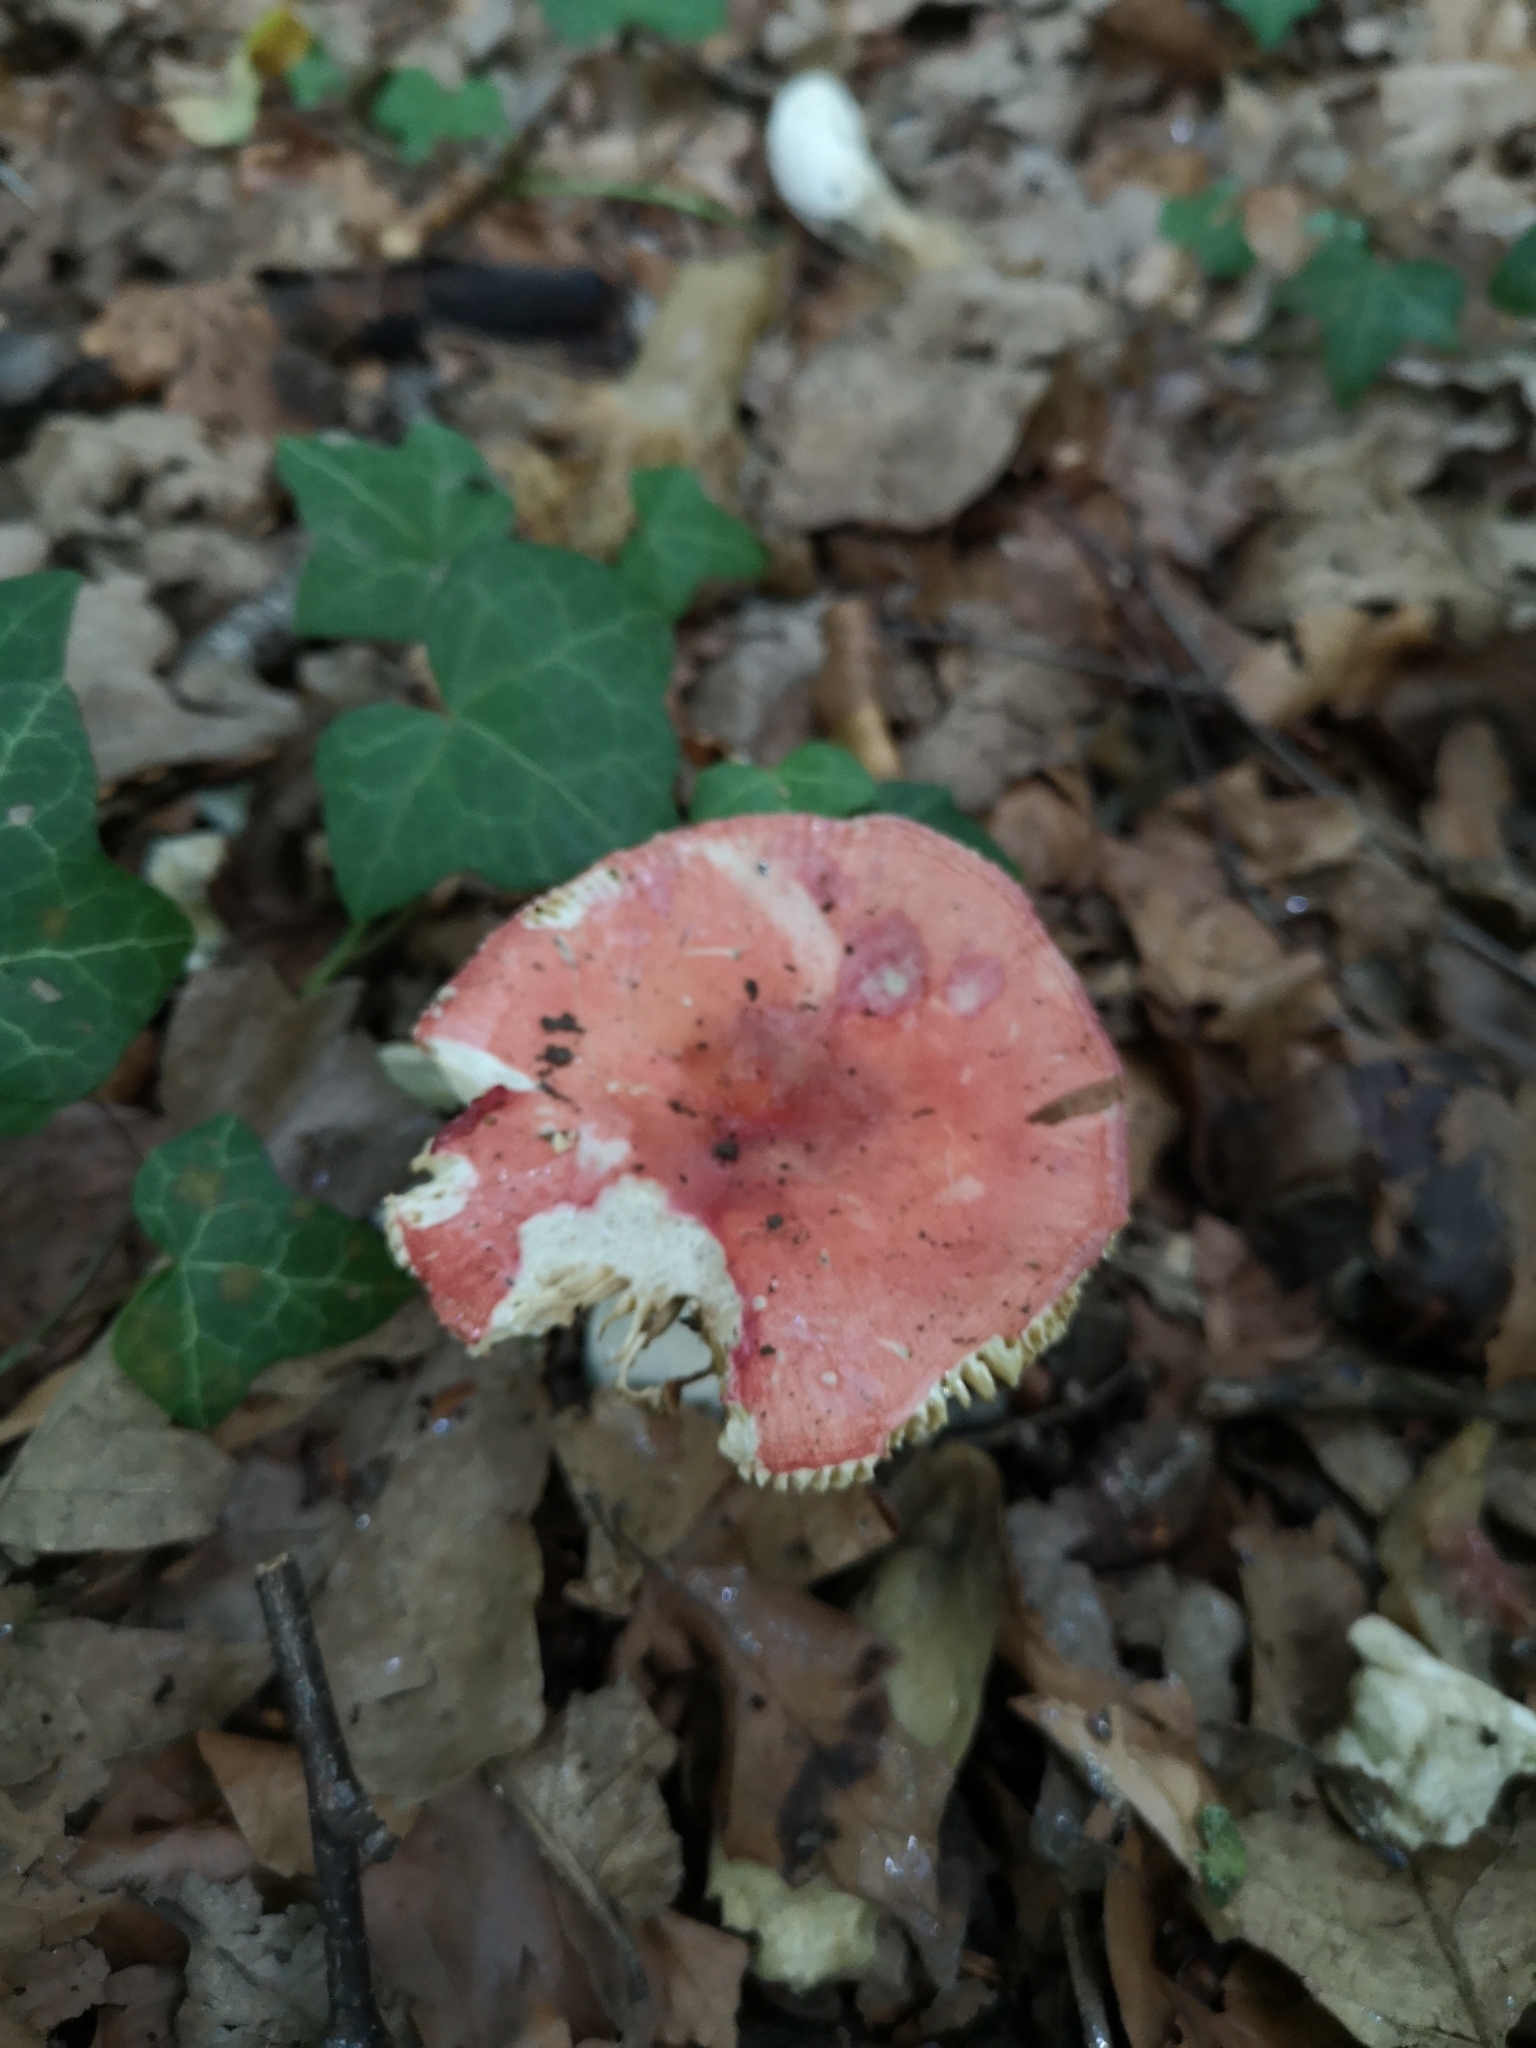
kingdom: Fungi
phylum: Basidiomycota
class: Agaricomycetes
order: Russulales
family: Russulaceae
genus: Russula
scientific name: Russula sanguinea
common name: Bloody brittlegill
